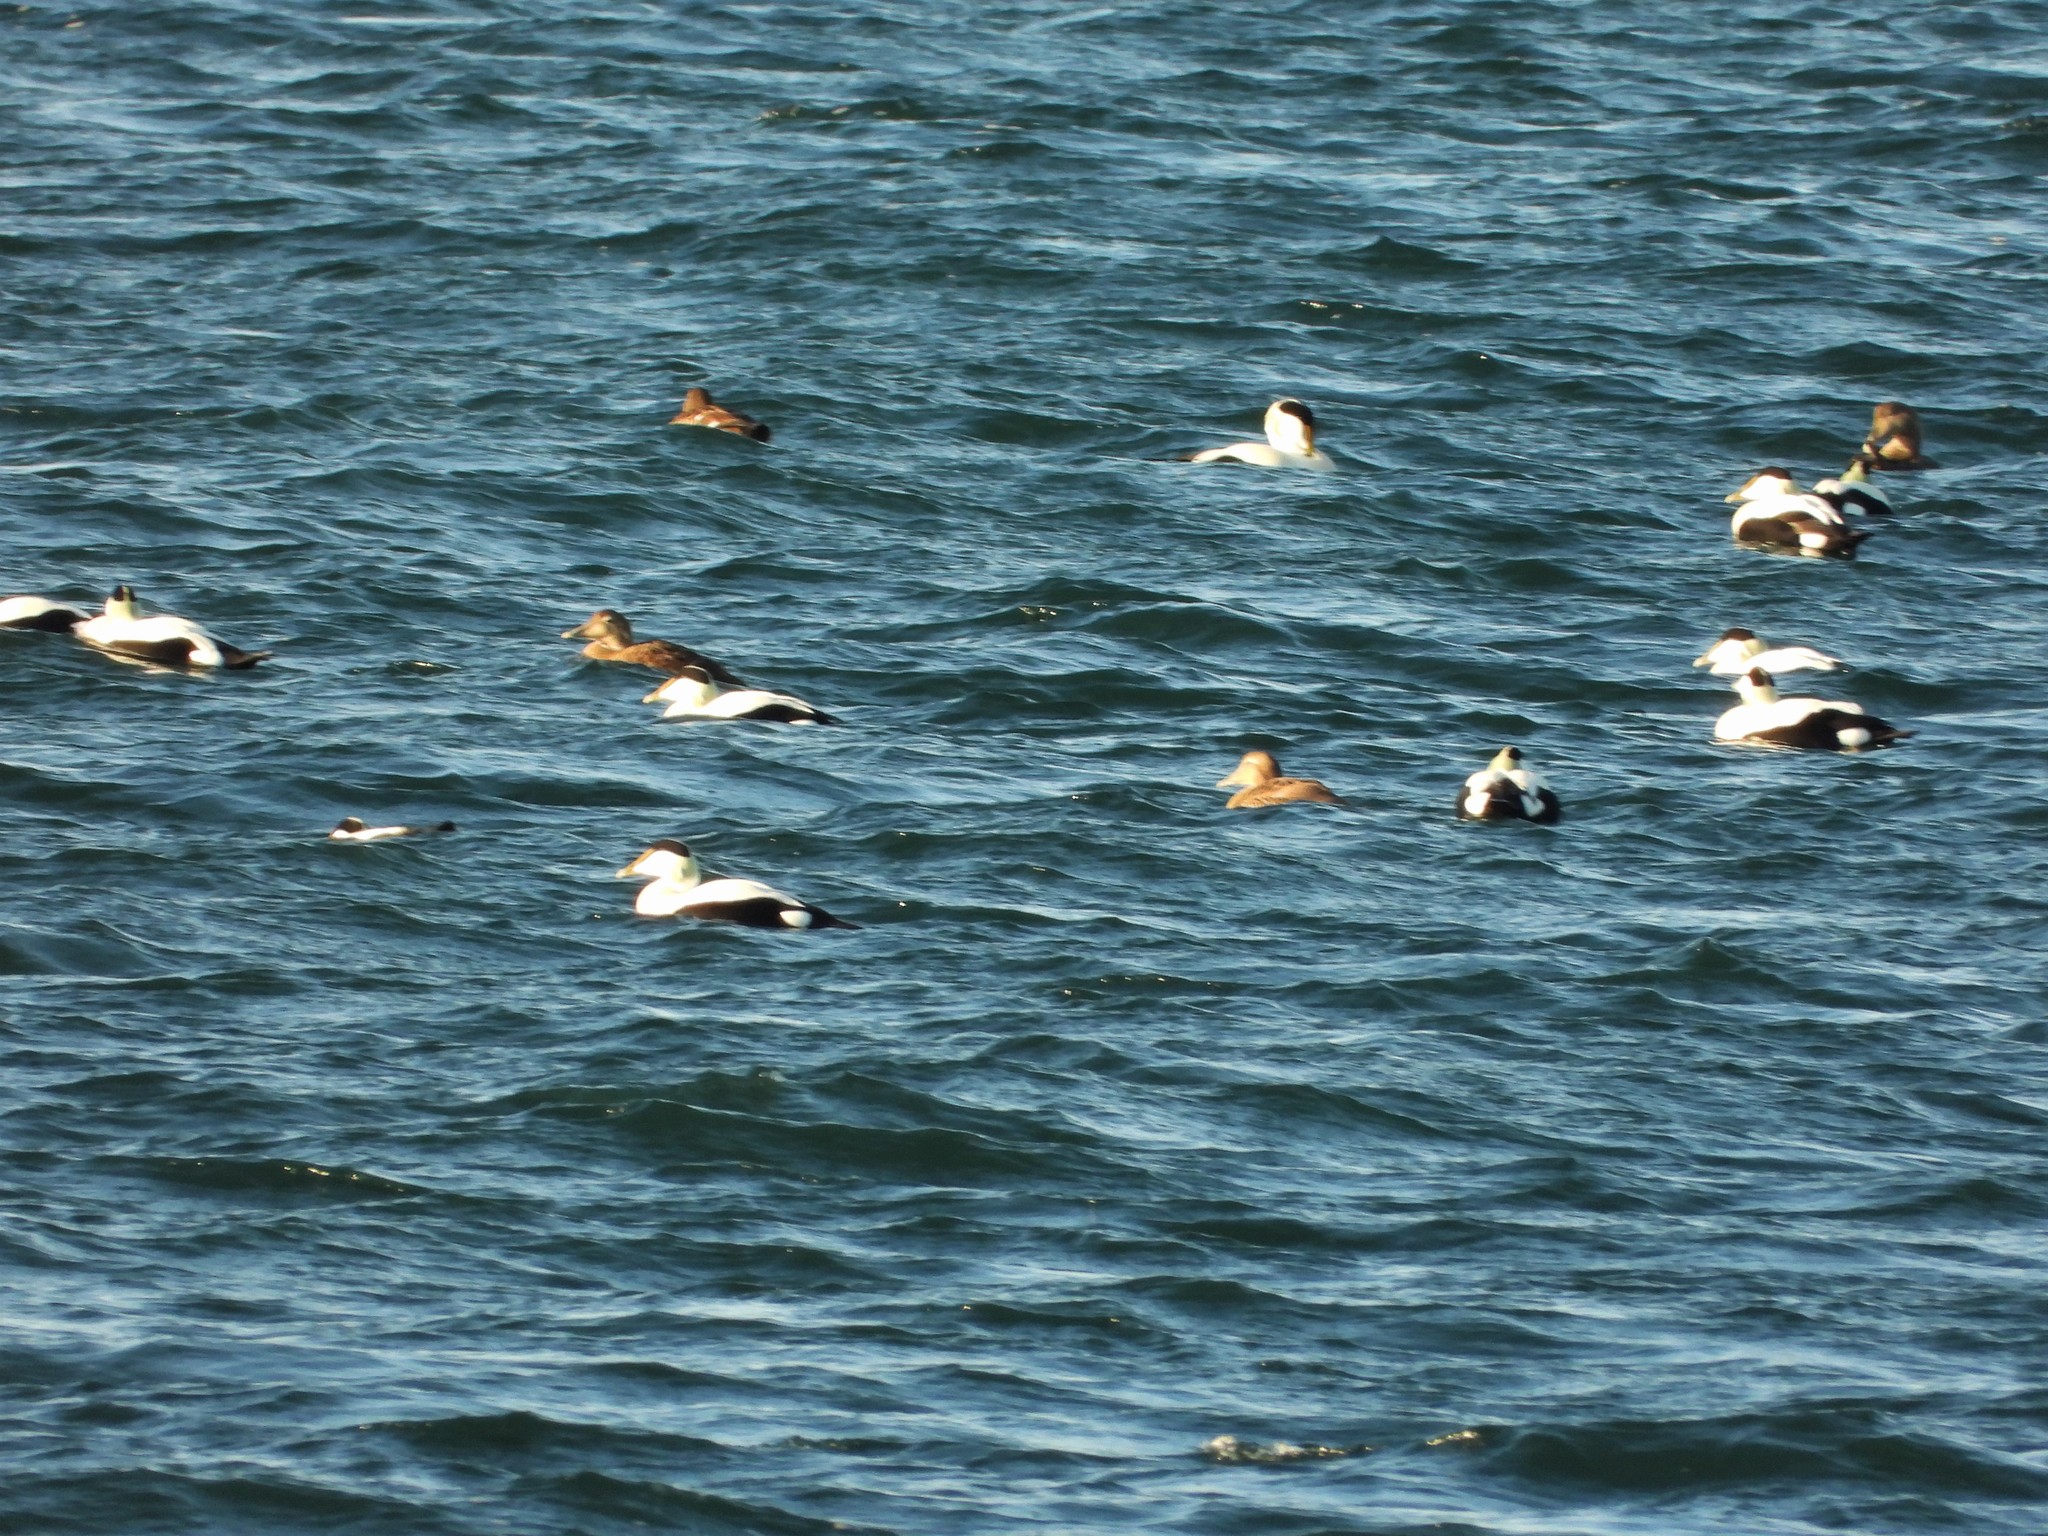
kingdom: Animalia
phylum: Chordata
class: Aves
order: Anseriformes
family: Anatidae
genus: Somateria
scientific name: Somateria mollissima
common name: Common eider
